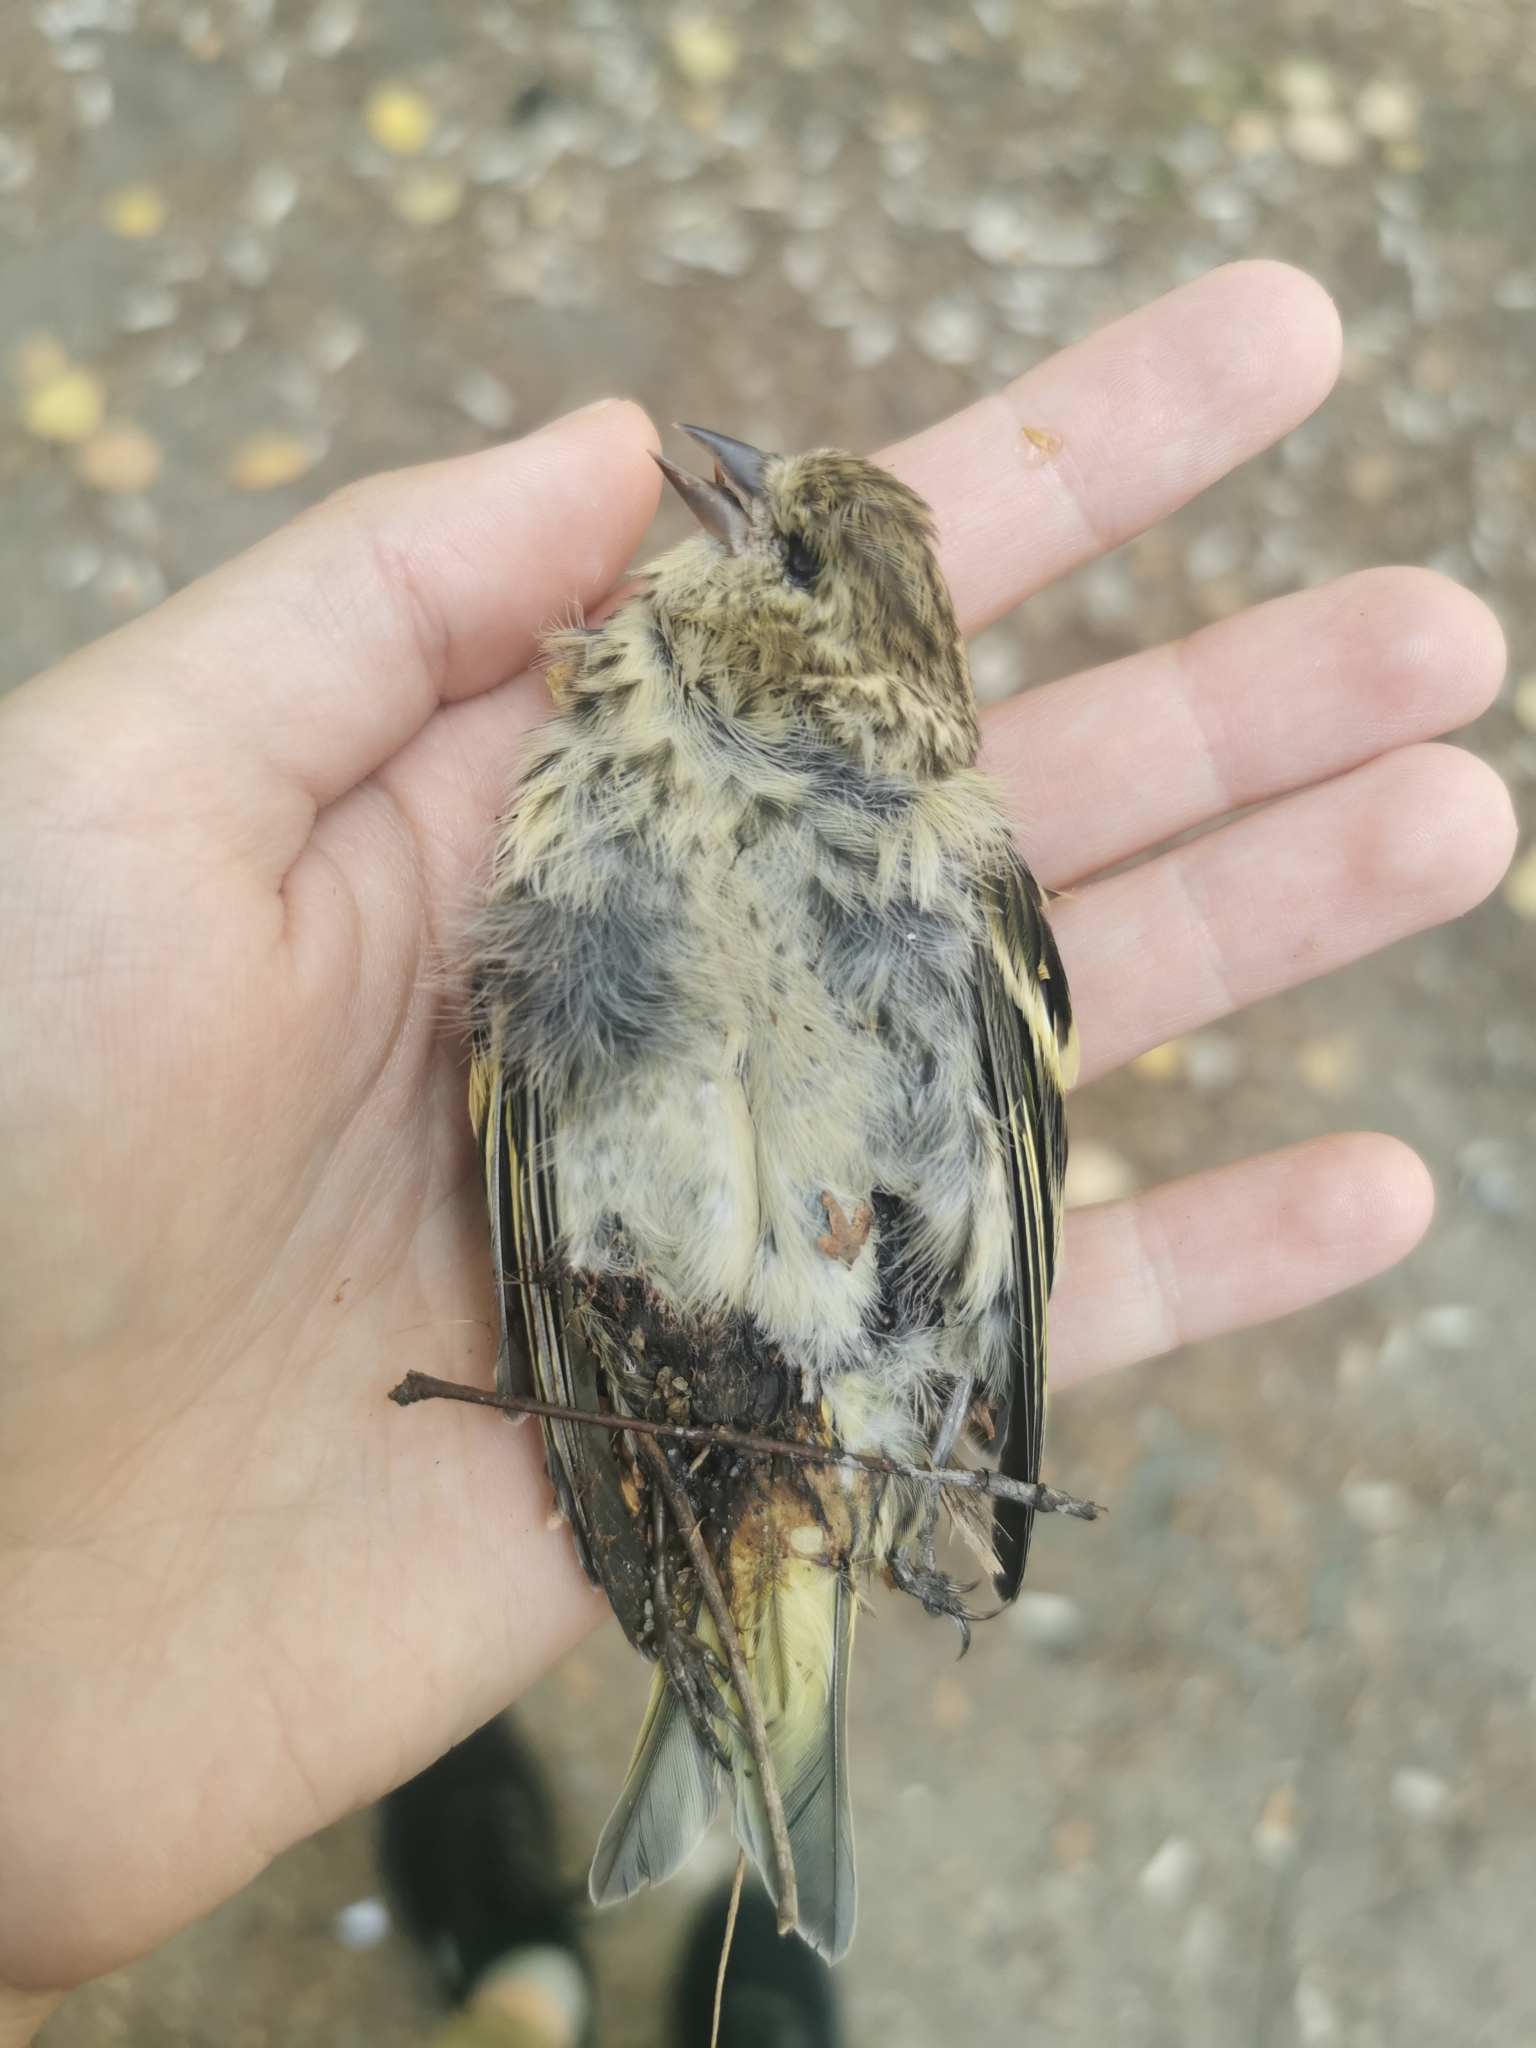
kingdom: Animalia
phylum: Chordata
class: Aves
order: Passeriformes
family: Fringillidae
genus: Spinus
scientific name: Spinus spinus
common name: Eurasian siskin
